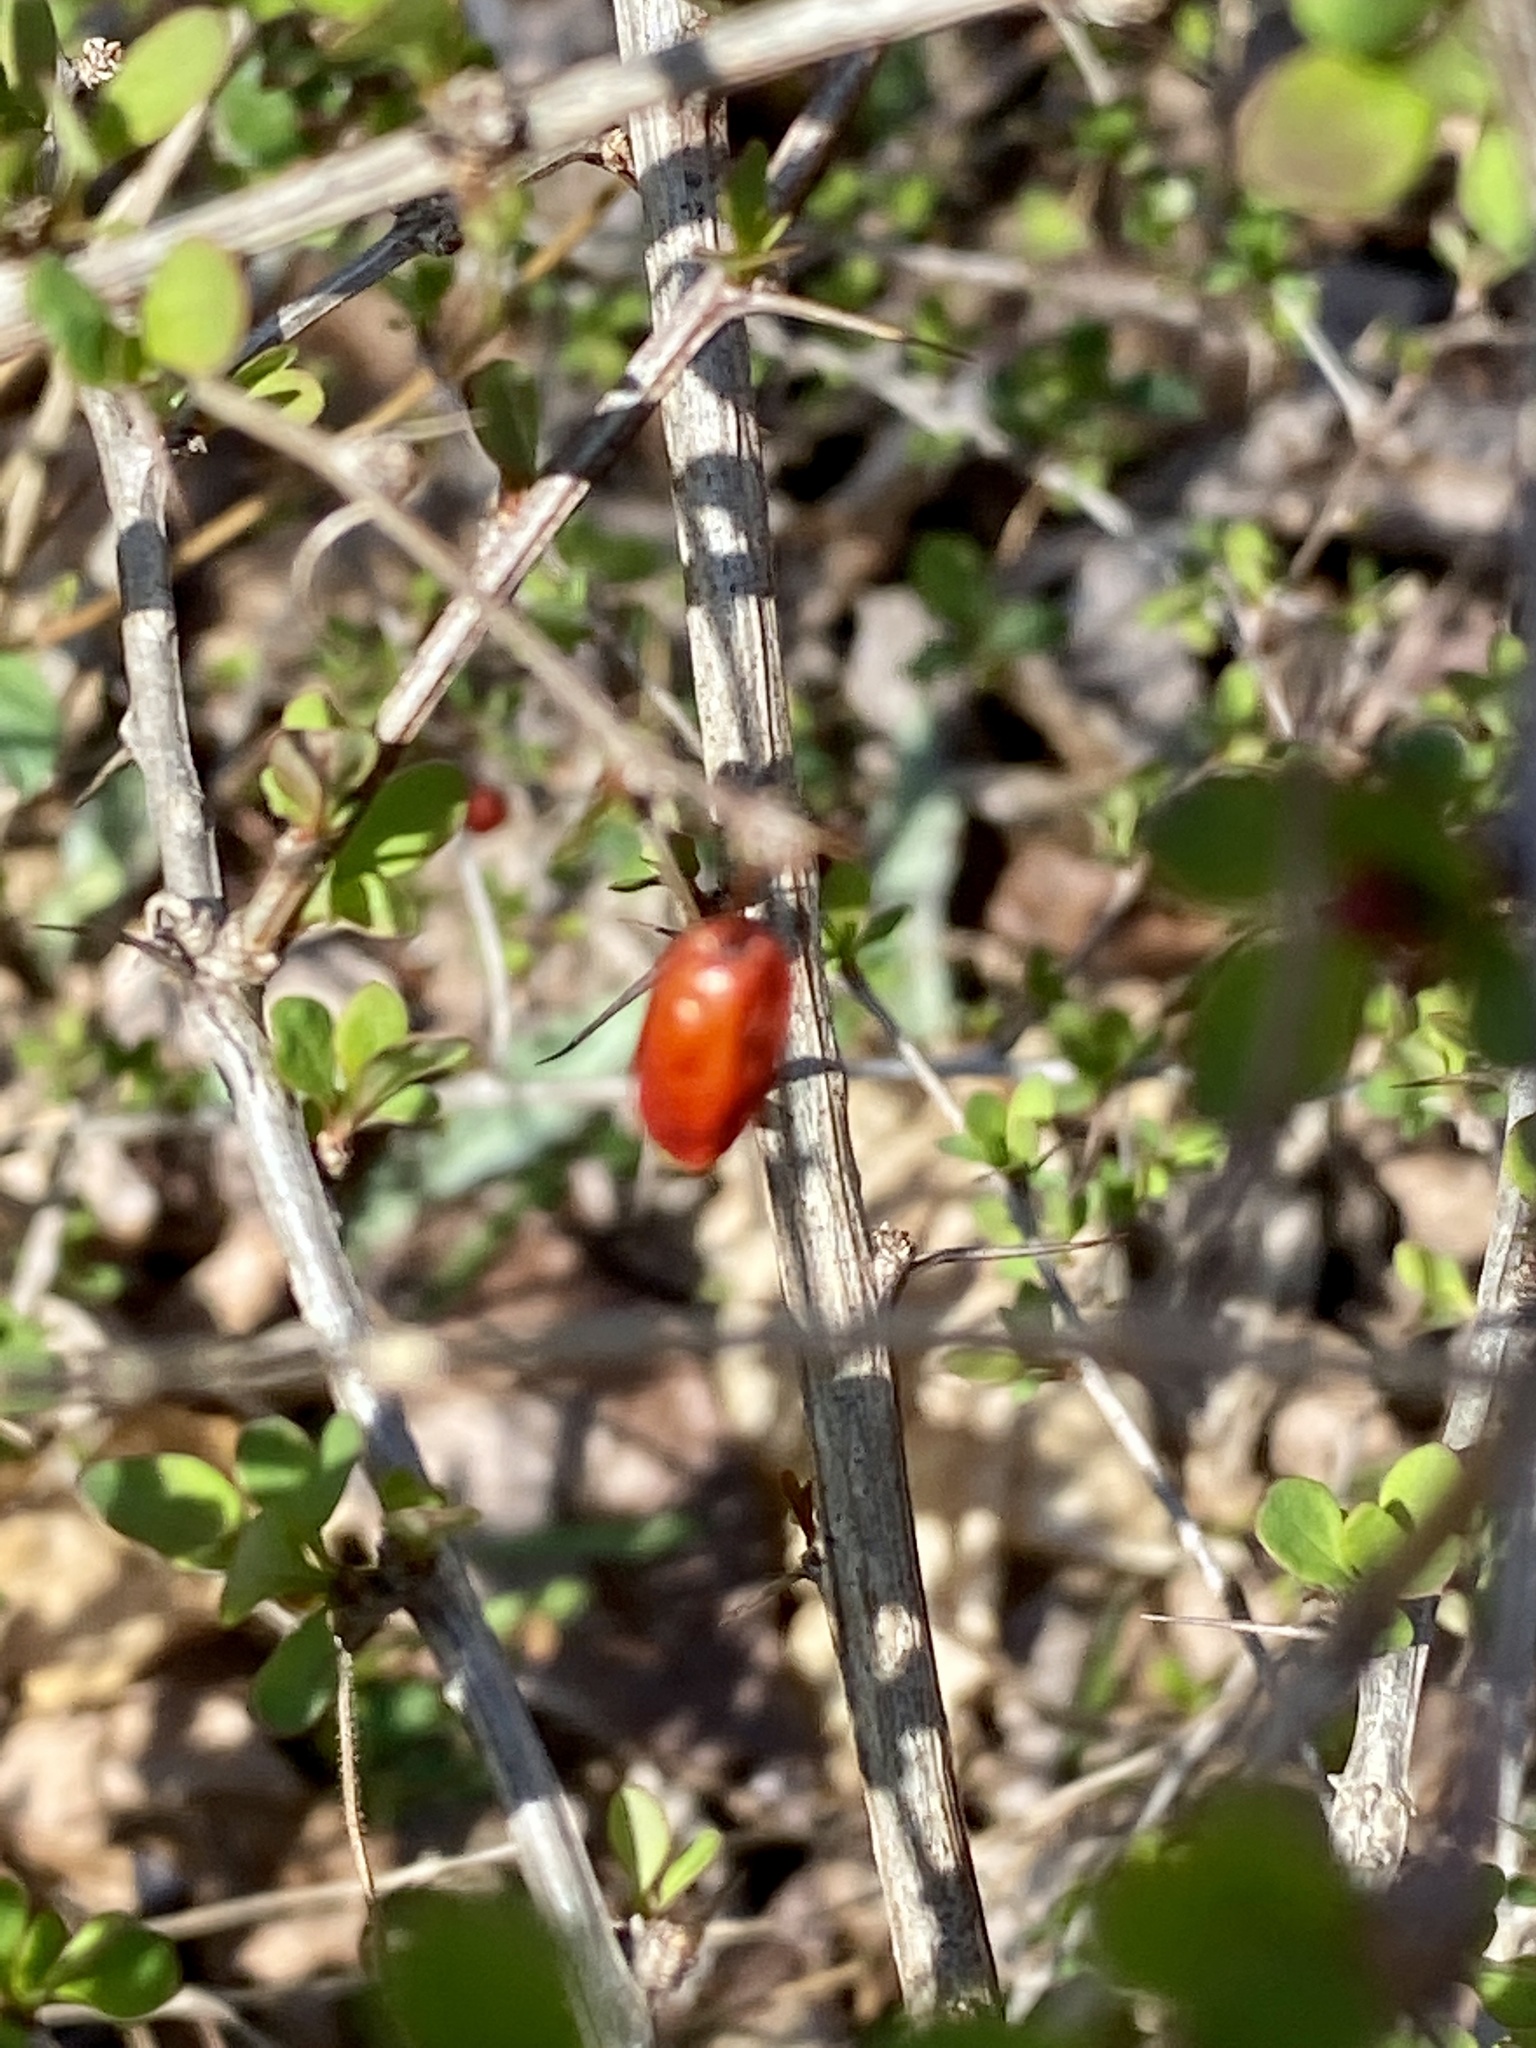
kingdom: Plantae
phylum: Tracheophyta
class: Magnoliopsida
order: Ranunculales
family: Berberidaceae
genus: Berberis
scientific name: Berberis thunbergii
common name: Japanese barberry
